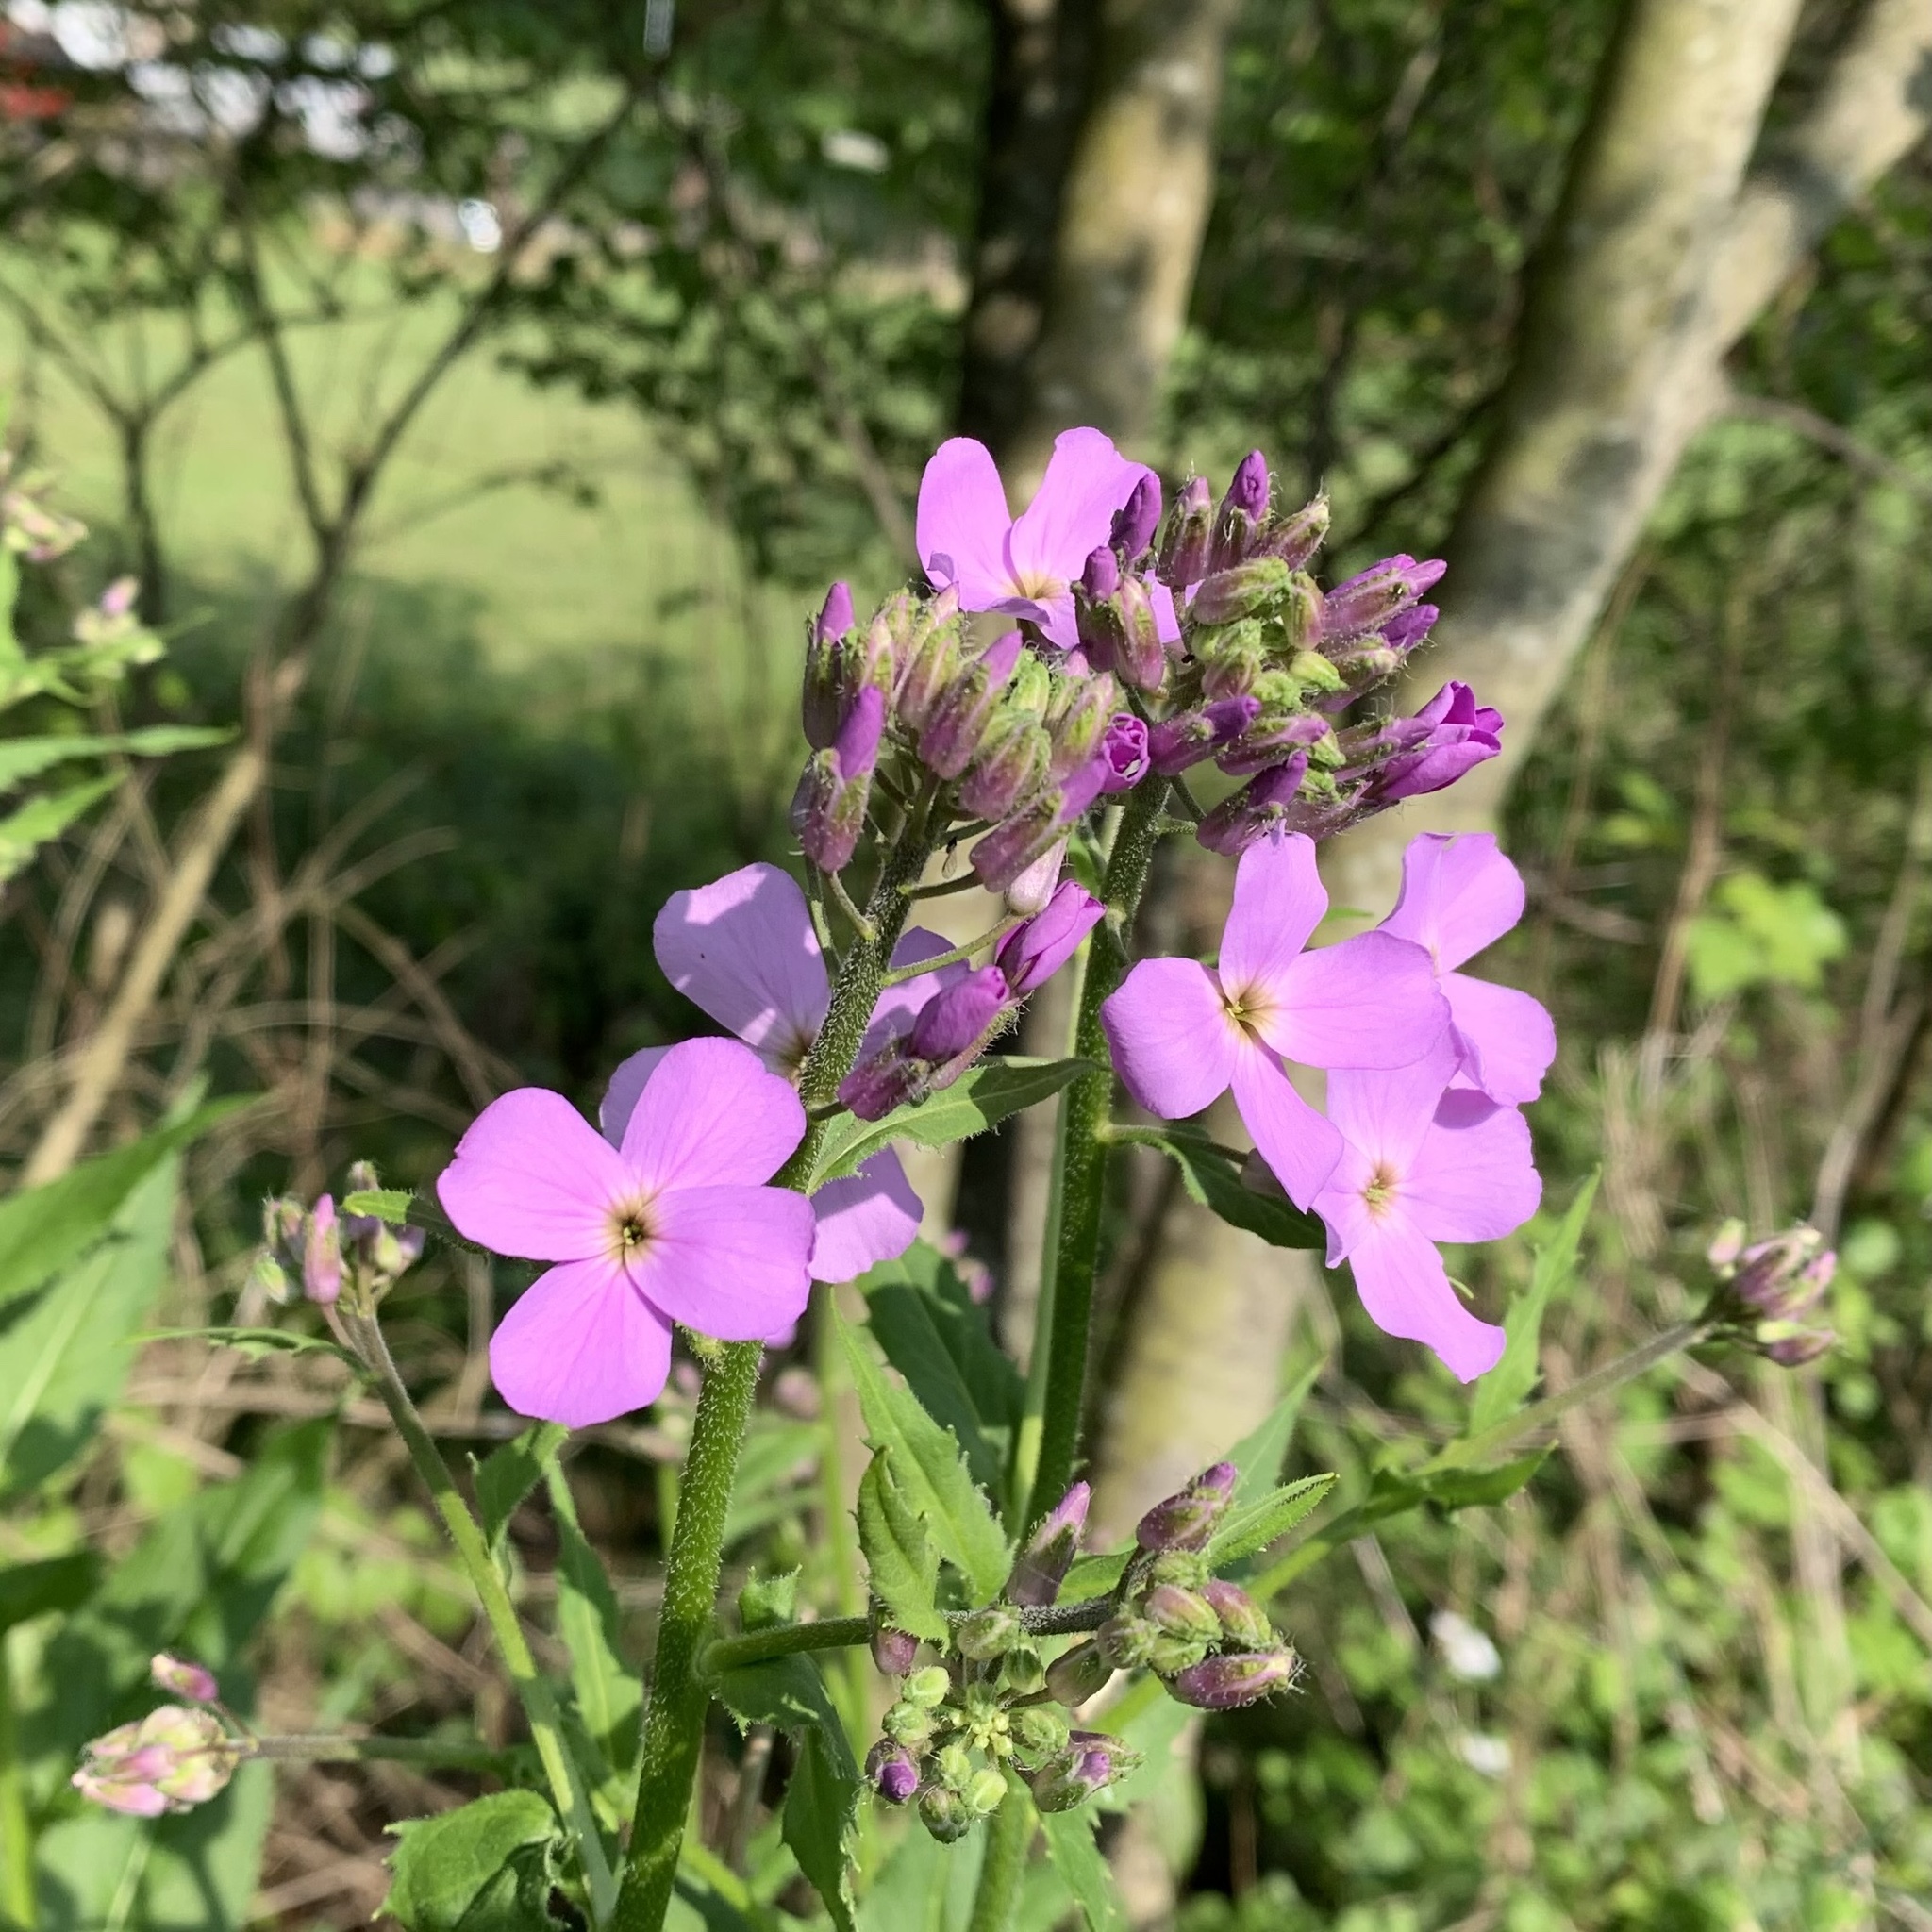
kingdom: Plantae
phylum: Tracheophyta
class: Magnoliopsida
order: Brassicales
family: Brassicaceae
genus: Hesperis
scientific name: Hesperis matronalis
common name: Dame's-violet
